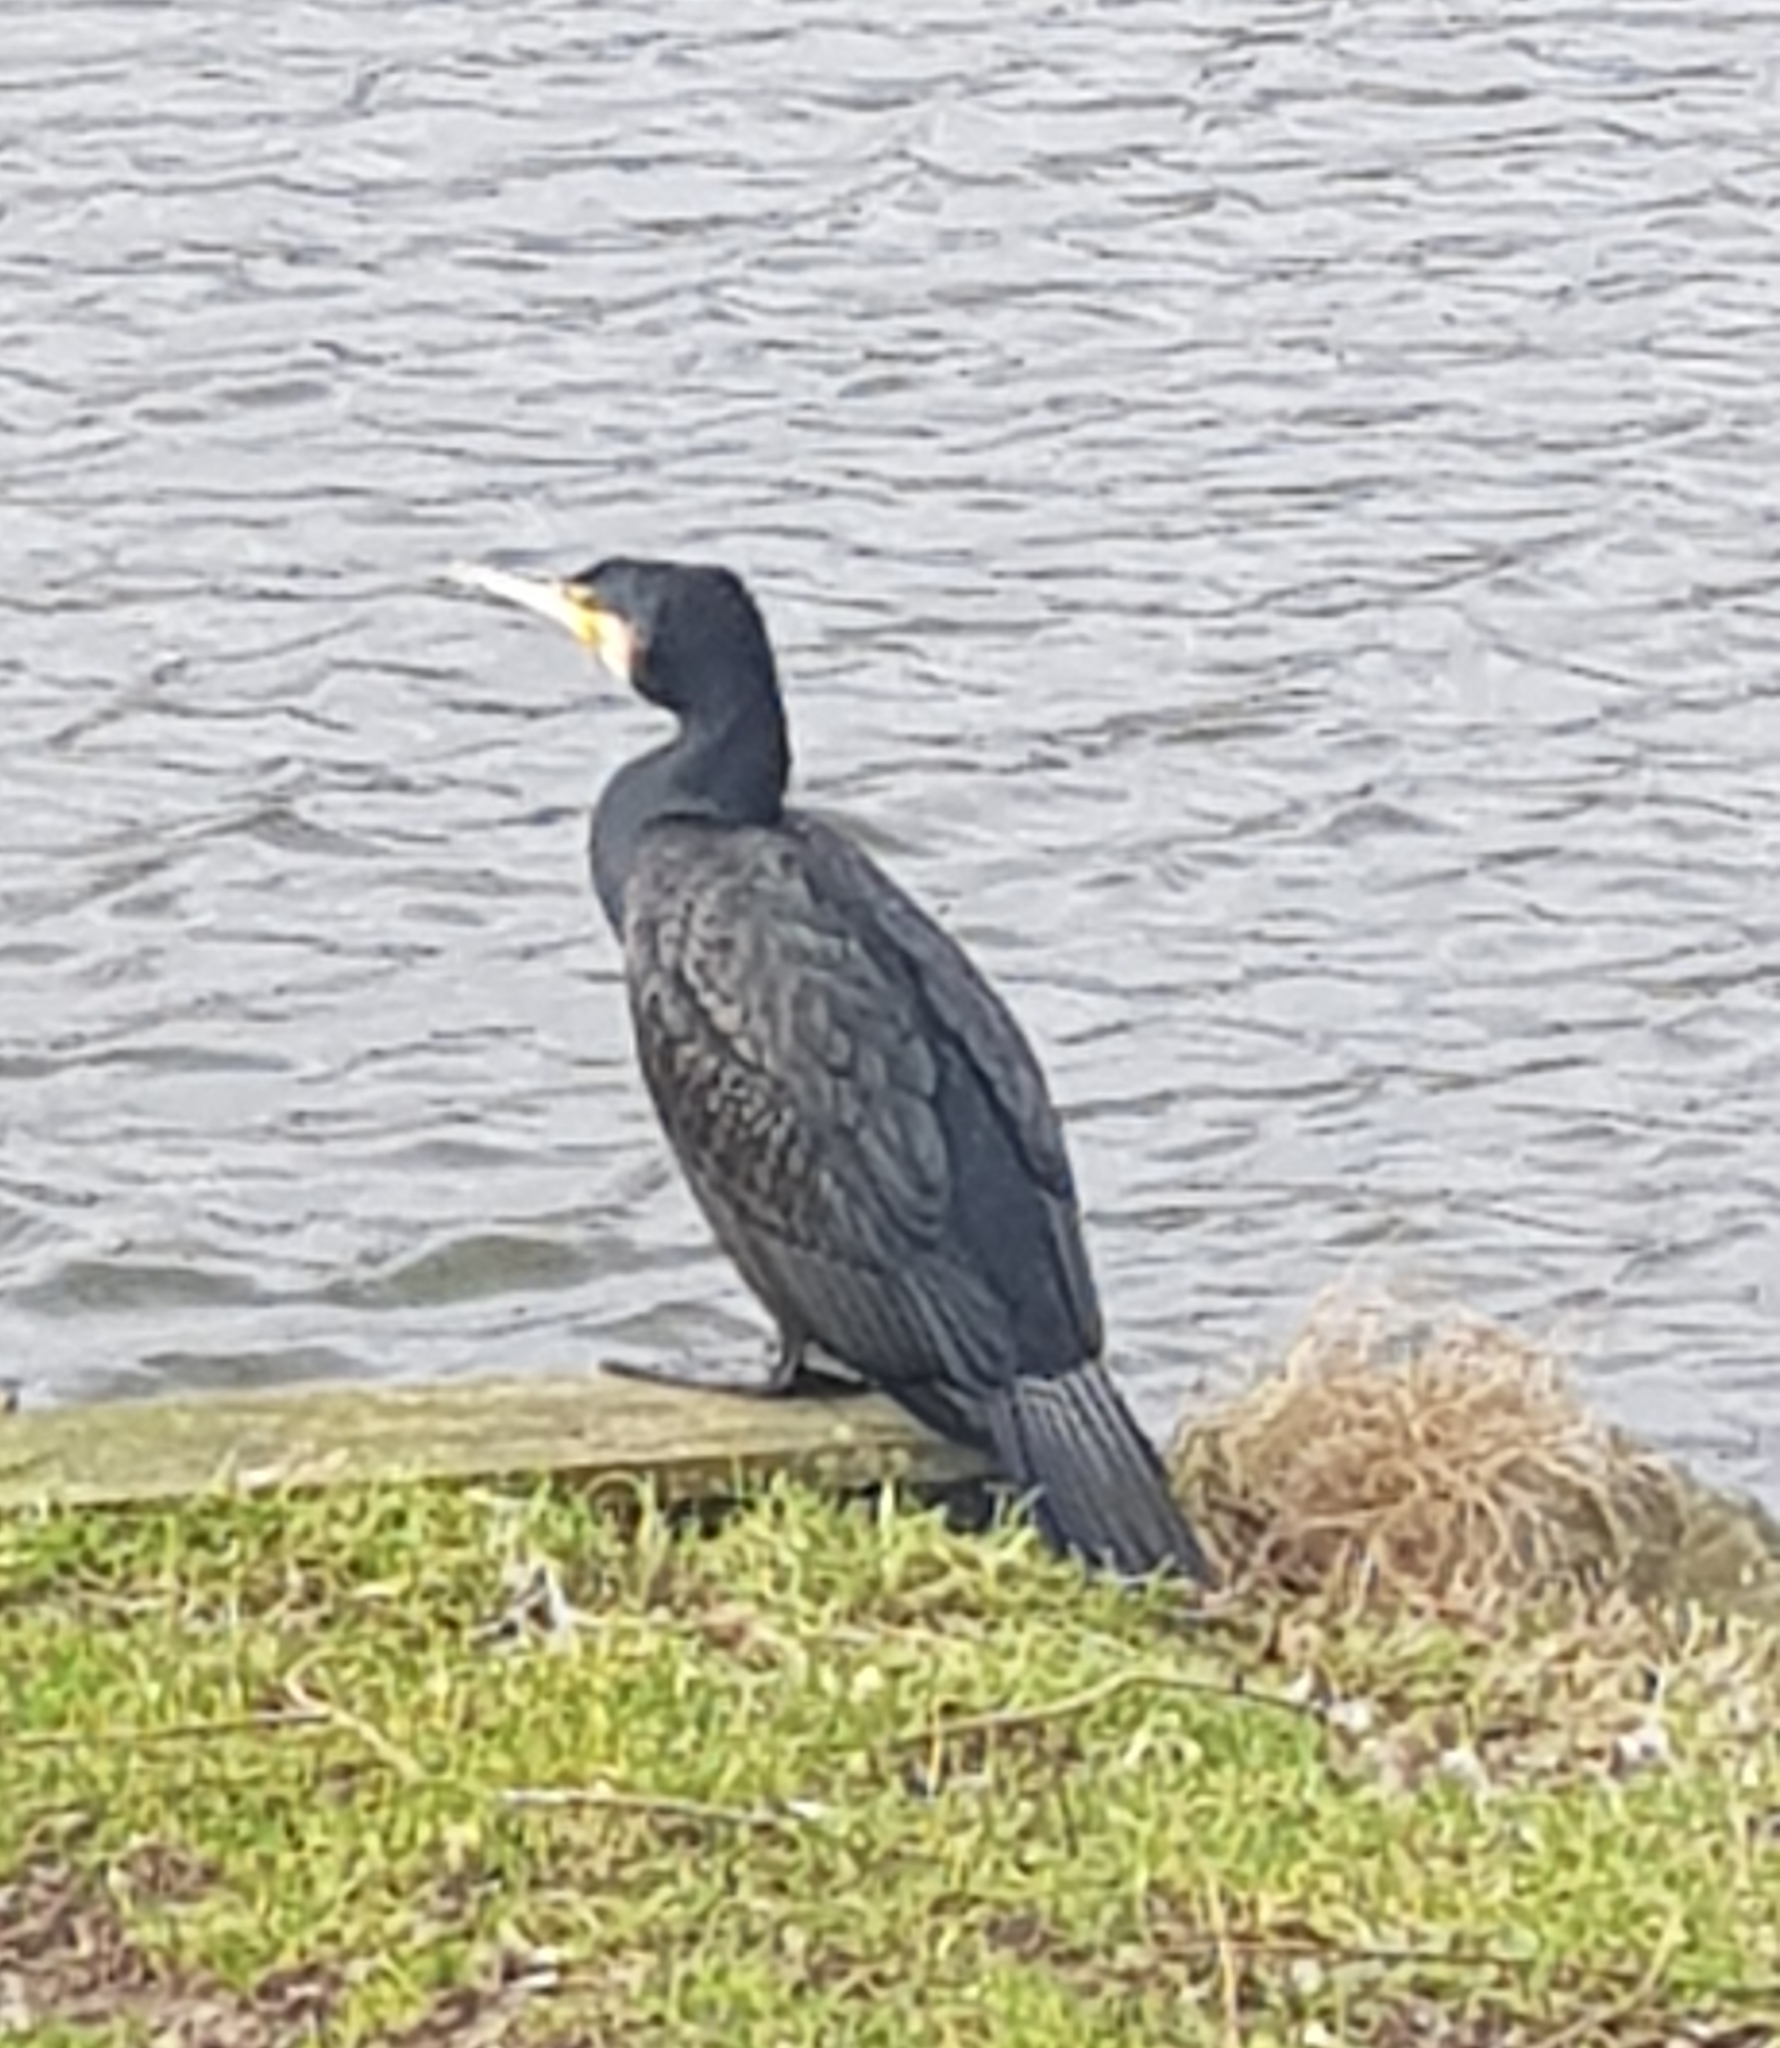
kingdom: Animalia
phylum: Chordata
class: Aves
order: Suliformes
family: Phalacrocoracidae
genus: Phalacrocorax
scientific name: Phalacrocorax carbo
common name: Great cormorant
